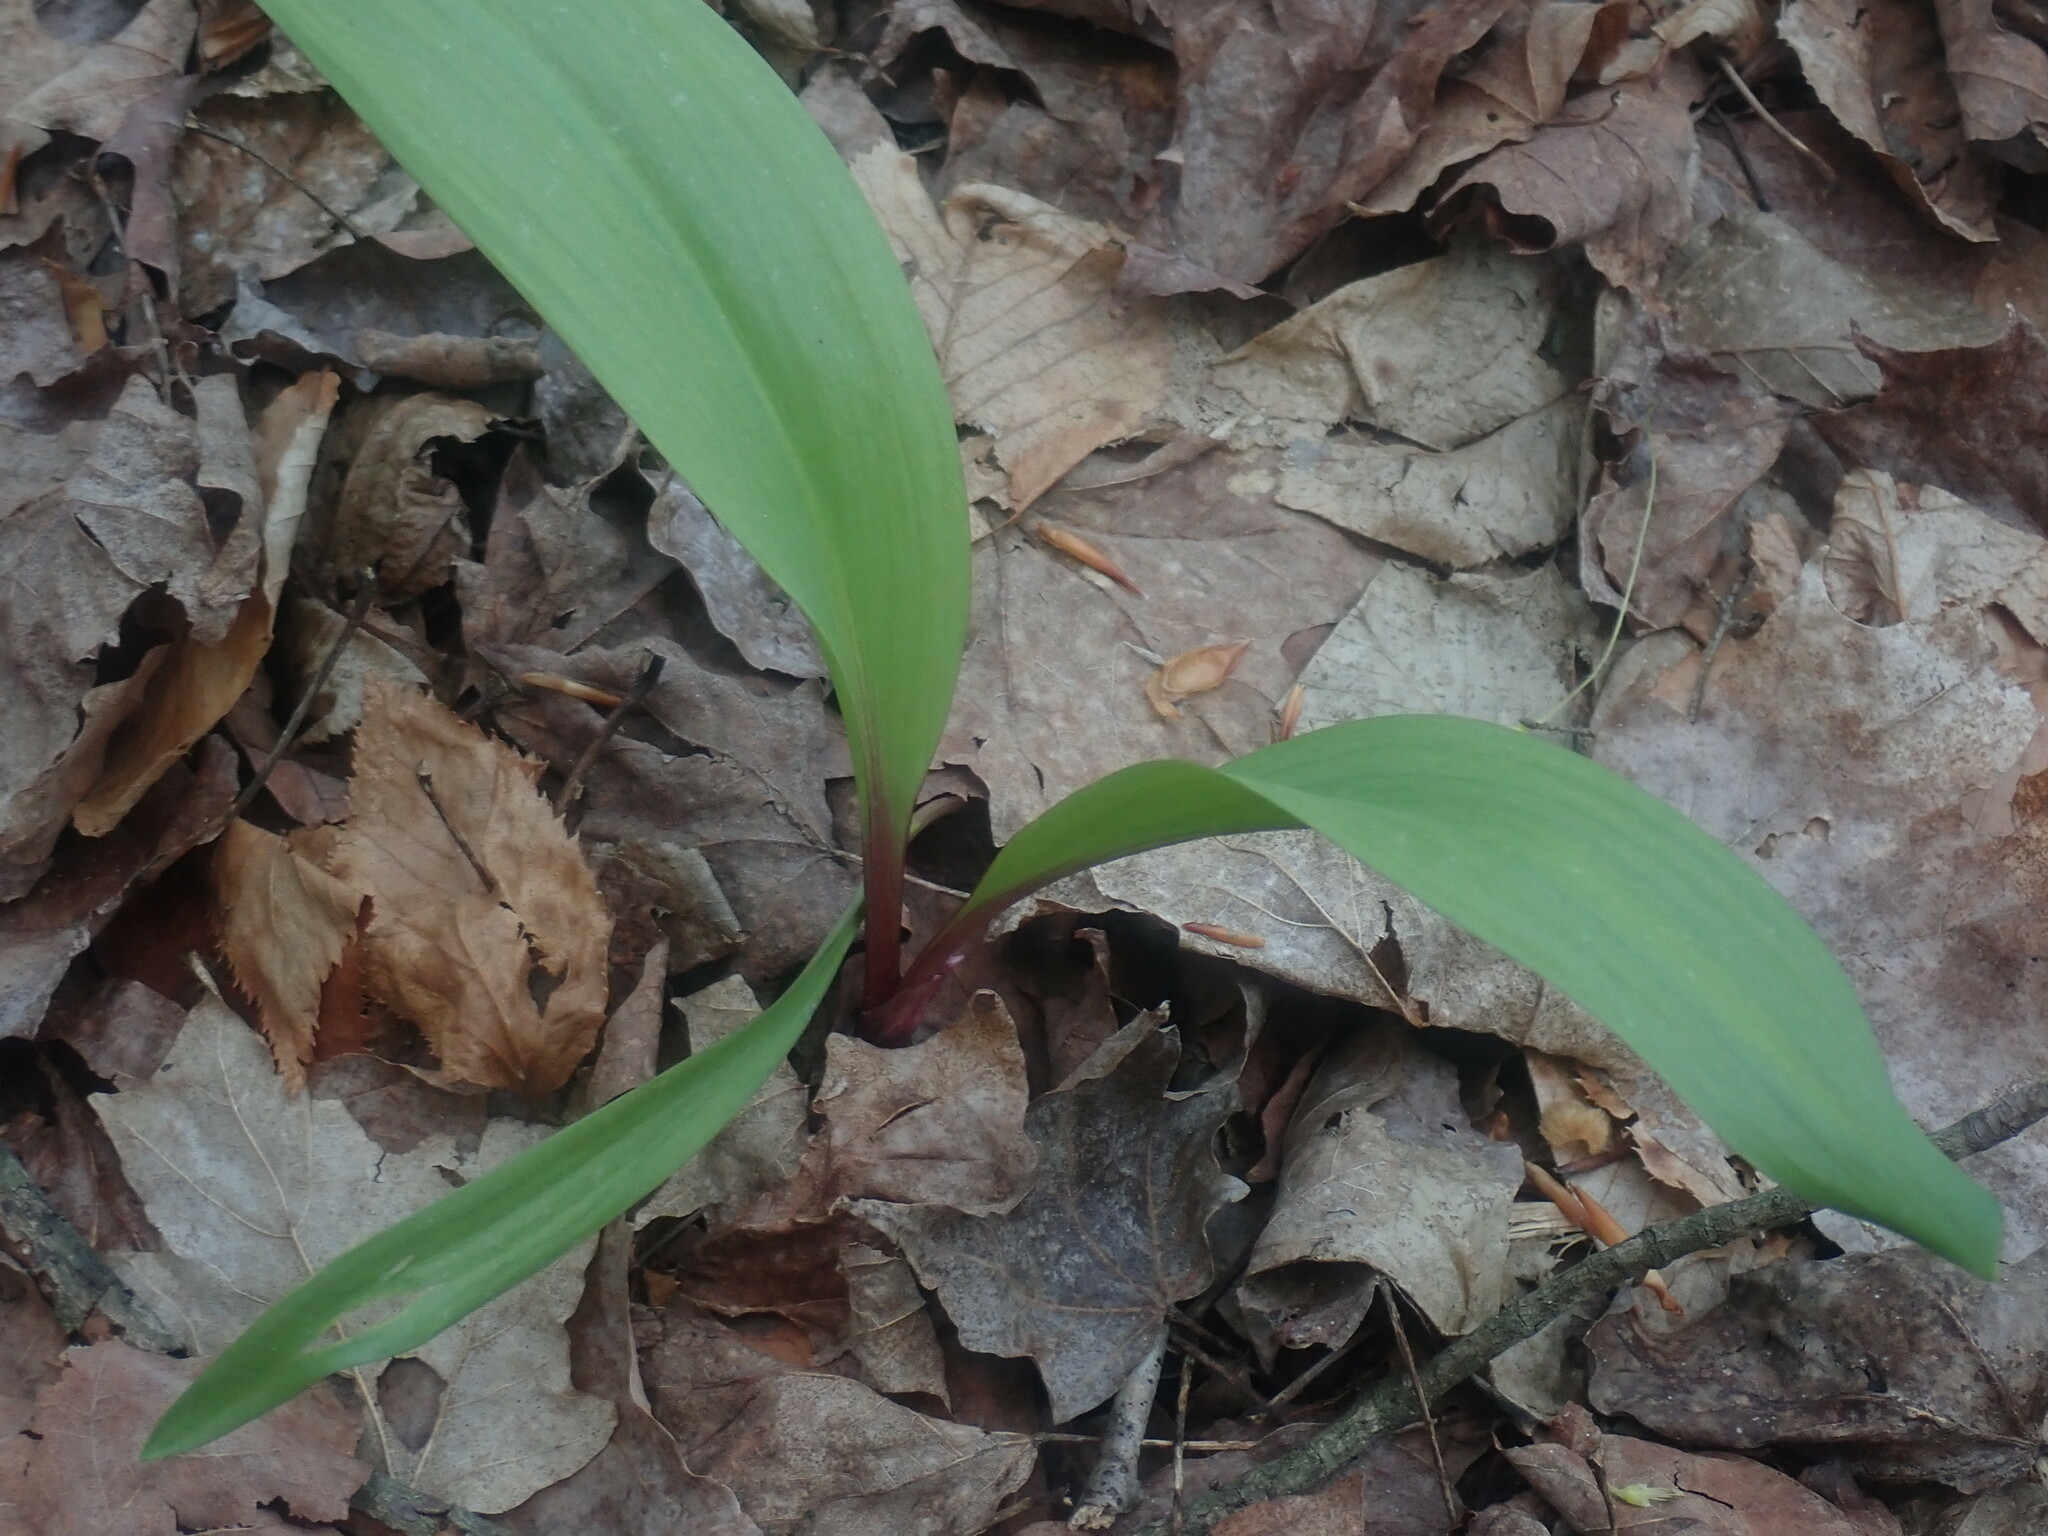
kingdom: Plantae
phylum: Tracheophyta
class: Liliopsida
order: Asparagales
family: Amaryllidaceae
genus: Allium
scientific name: Allium tricoccum
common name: Ramp
